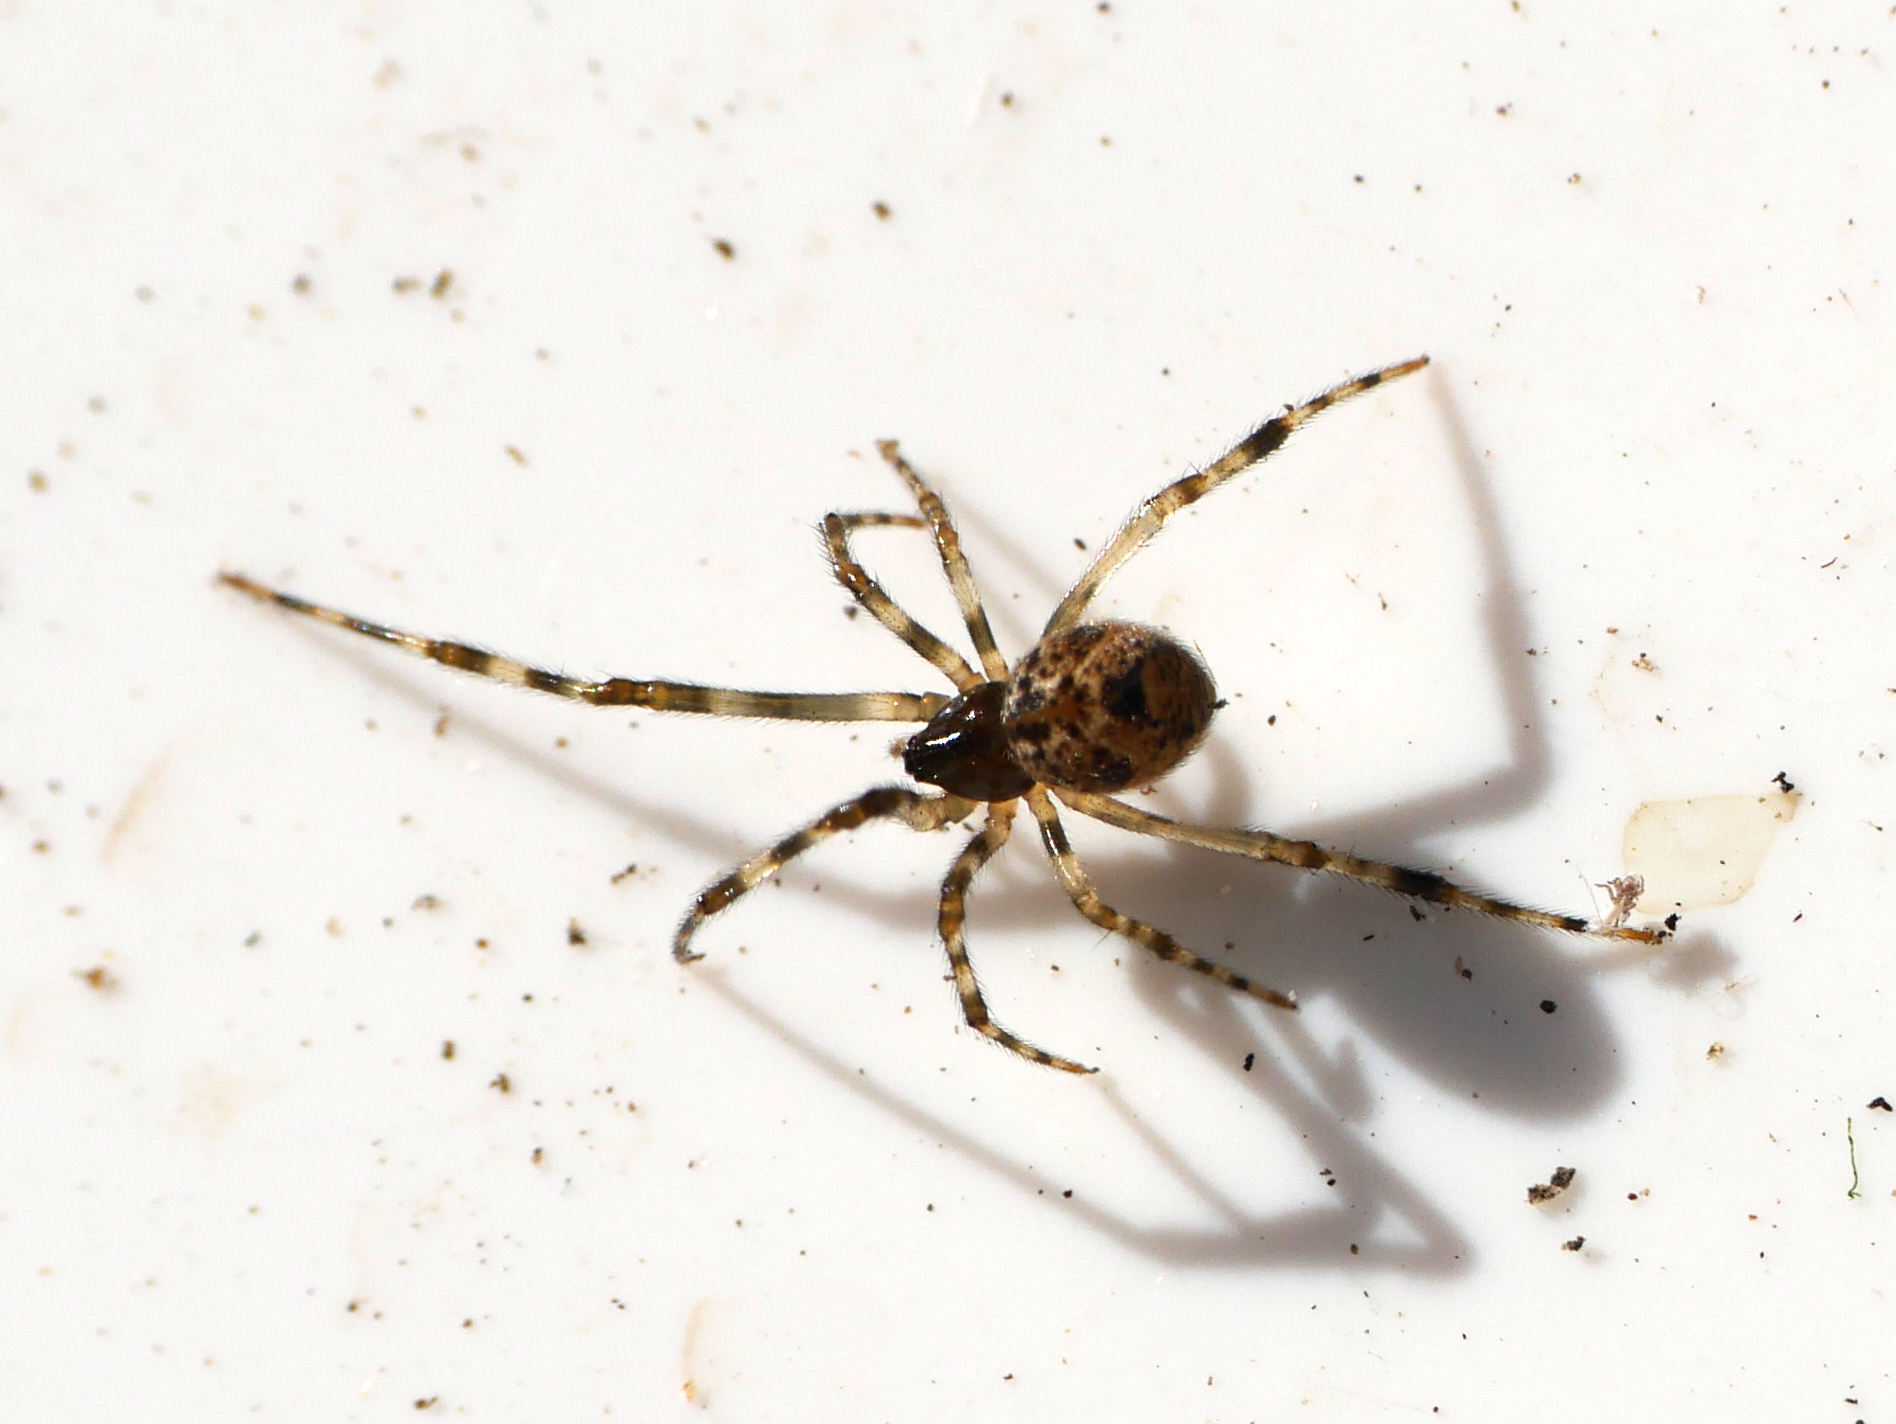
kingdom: Animalia
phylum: Arthropoda
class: Arachnida
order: Araneae
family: Theridiidae
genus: Parasteatoda
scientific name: Parasteatoda tepidariorum
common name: Common house spider
